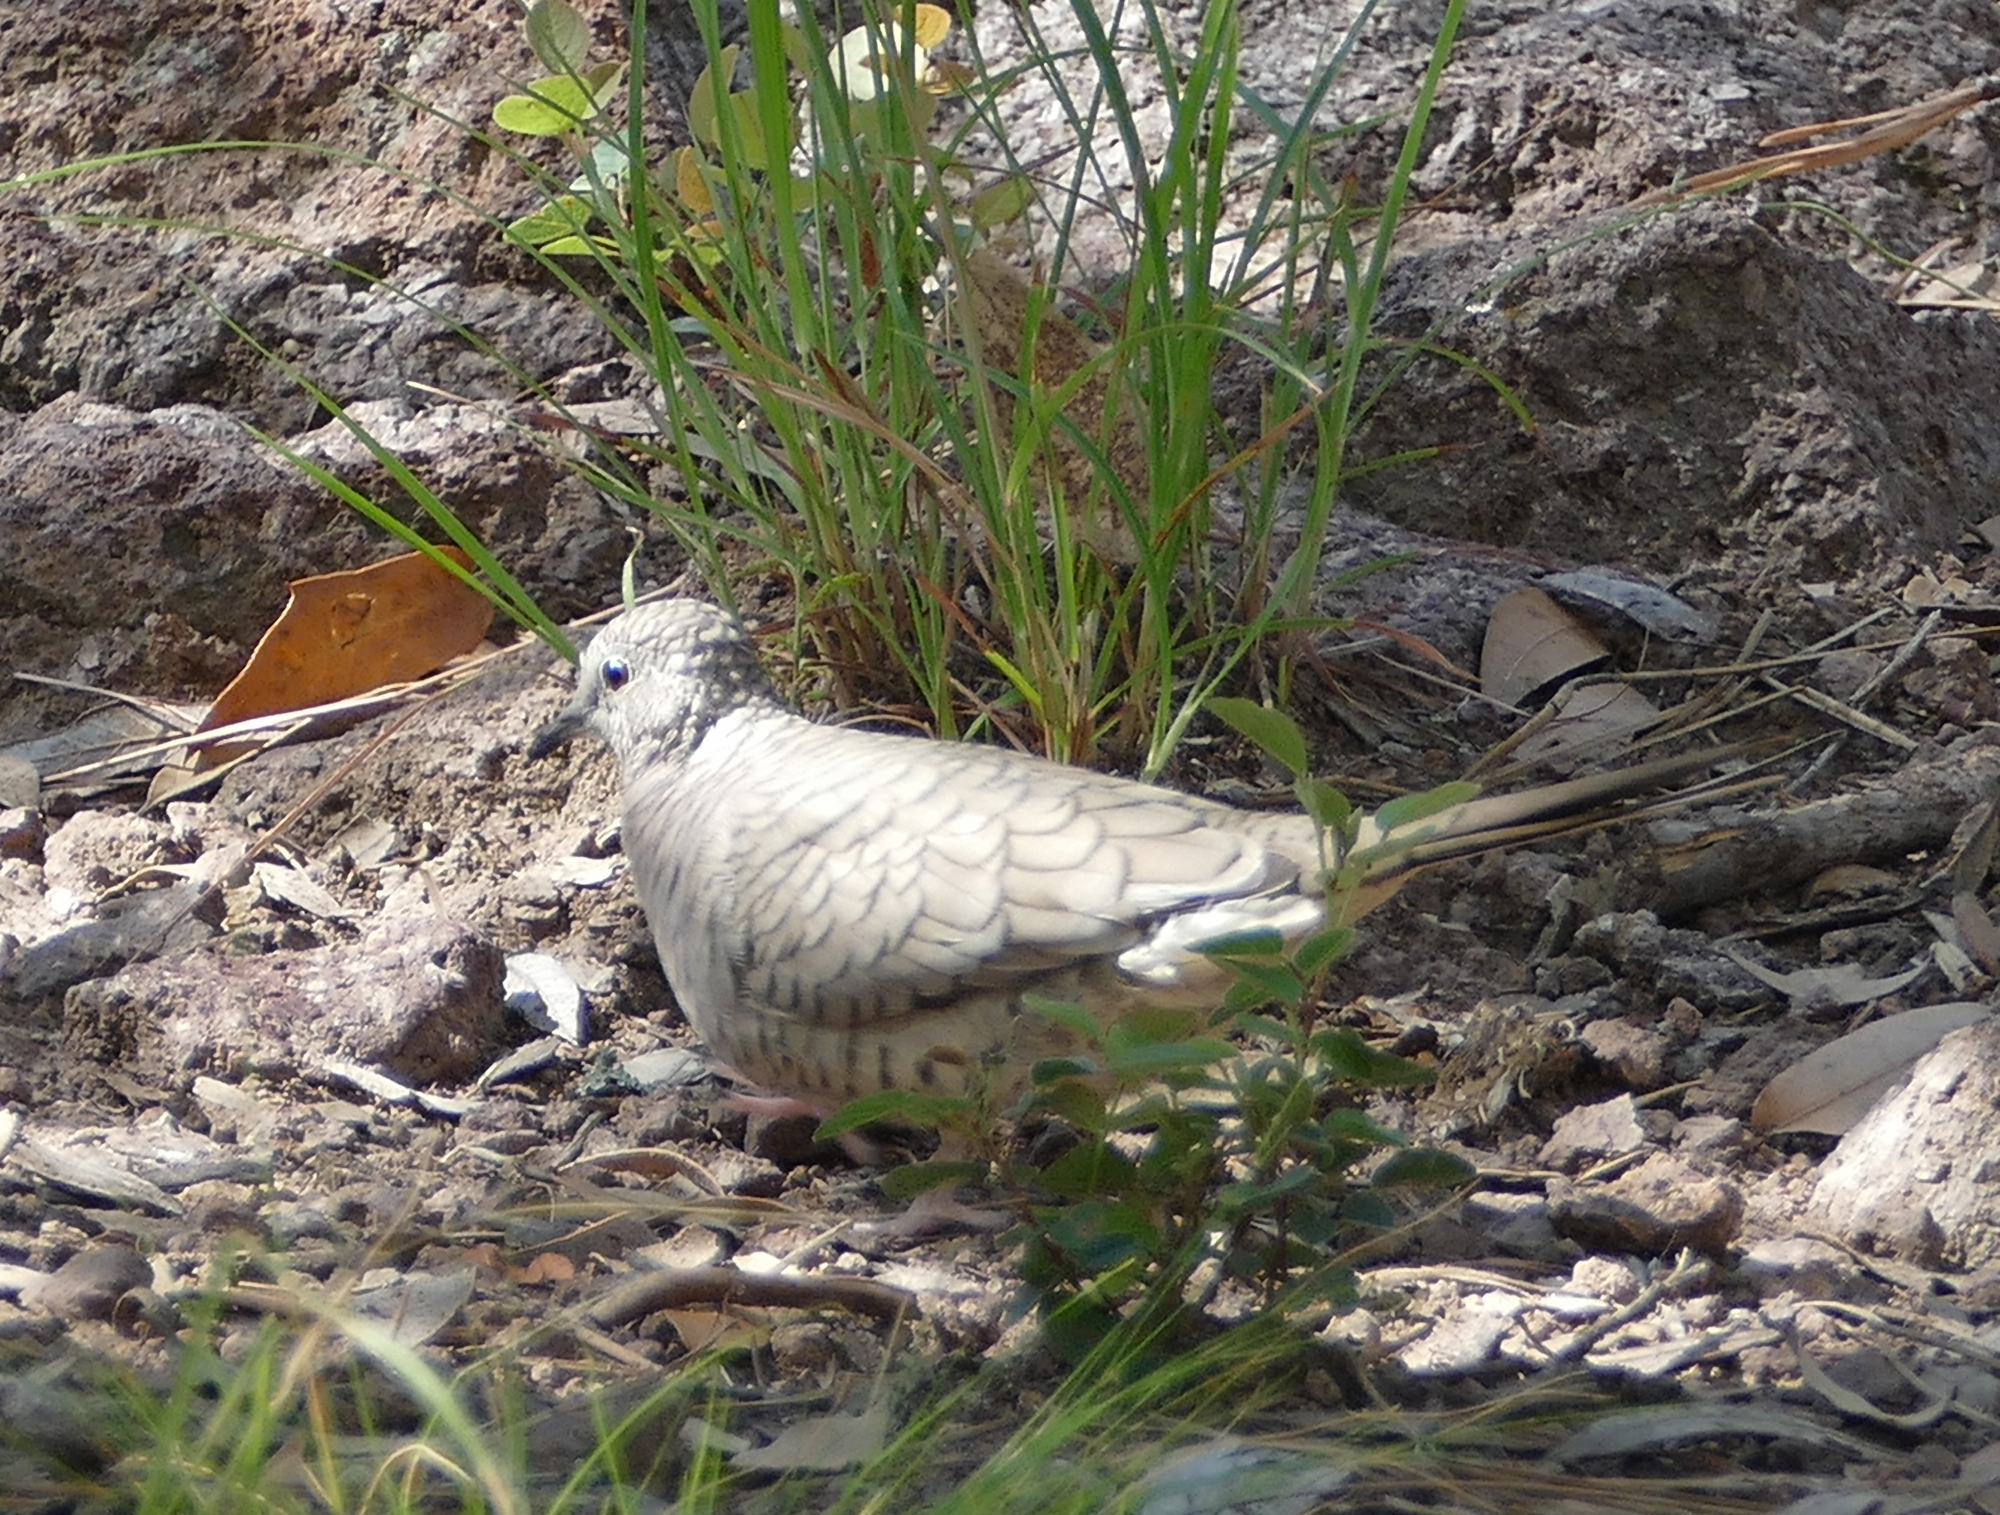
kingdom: Animalia
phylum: Chordata
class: Aves
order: Columbiformes
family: Columbidae
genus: Columbina
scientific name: Columbina inca
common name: Inca dove
